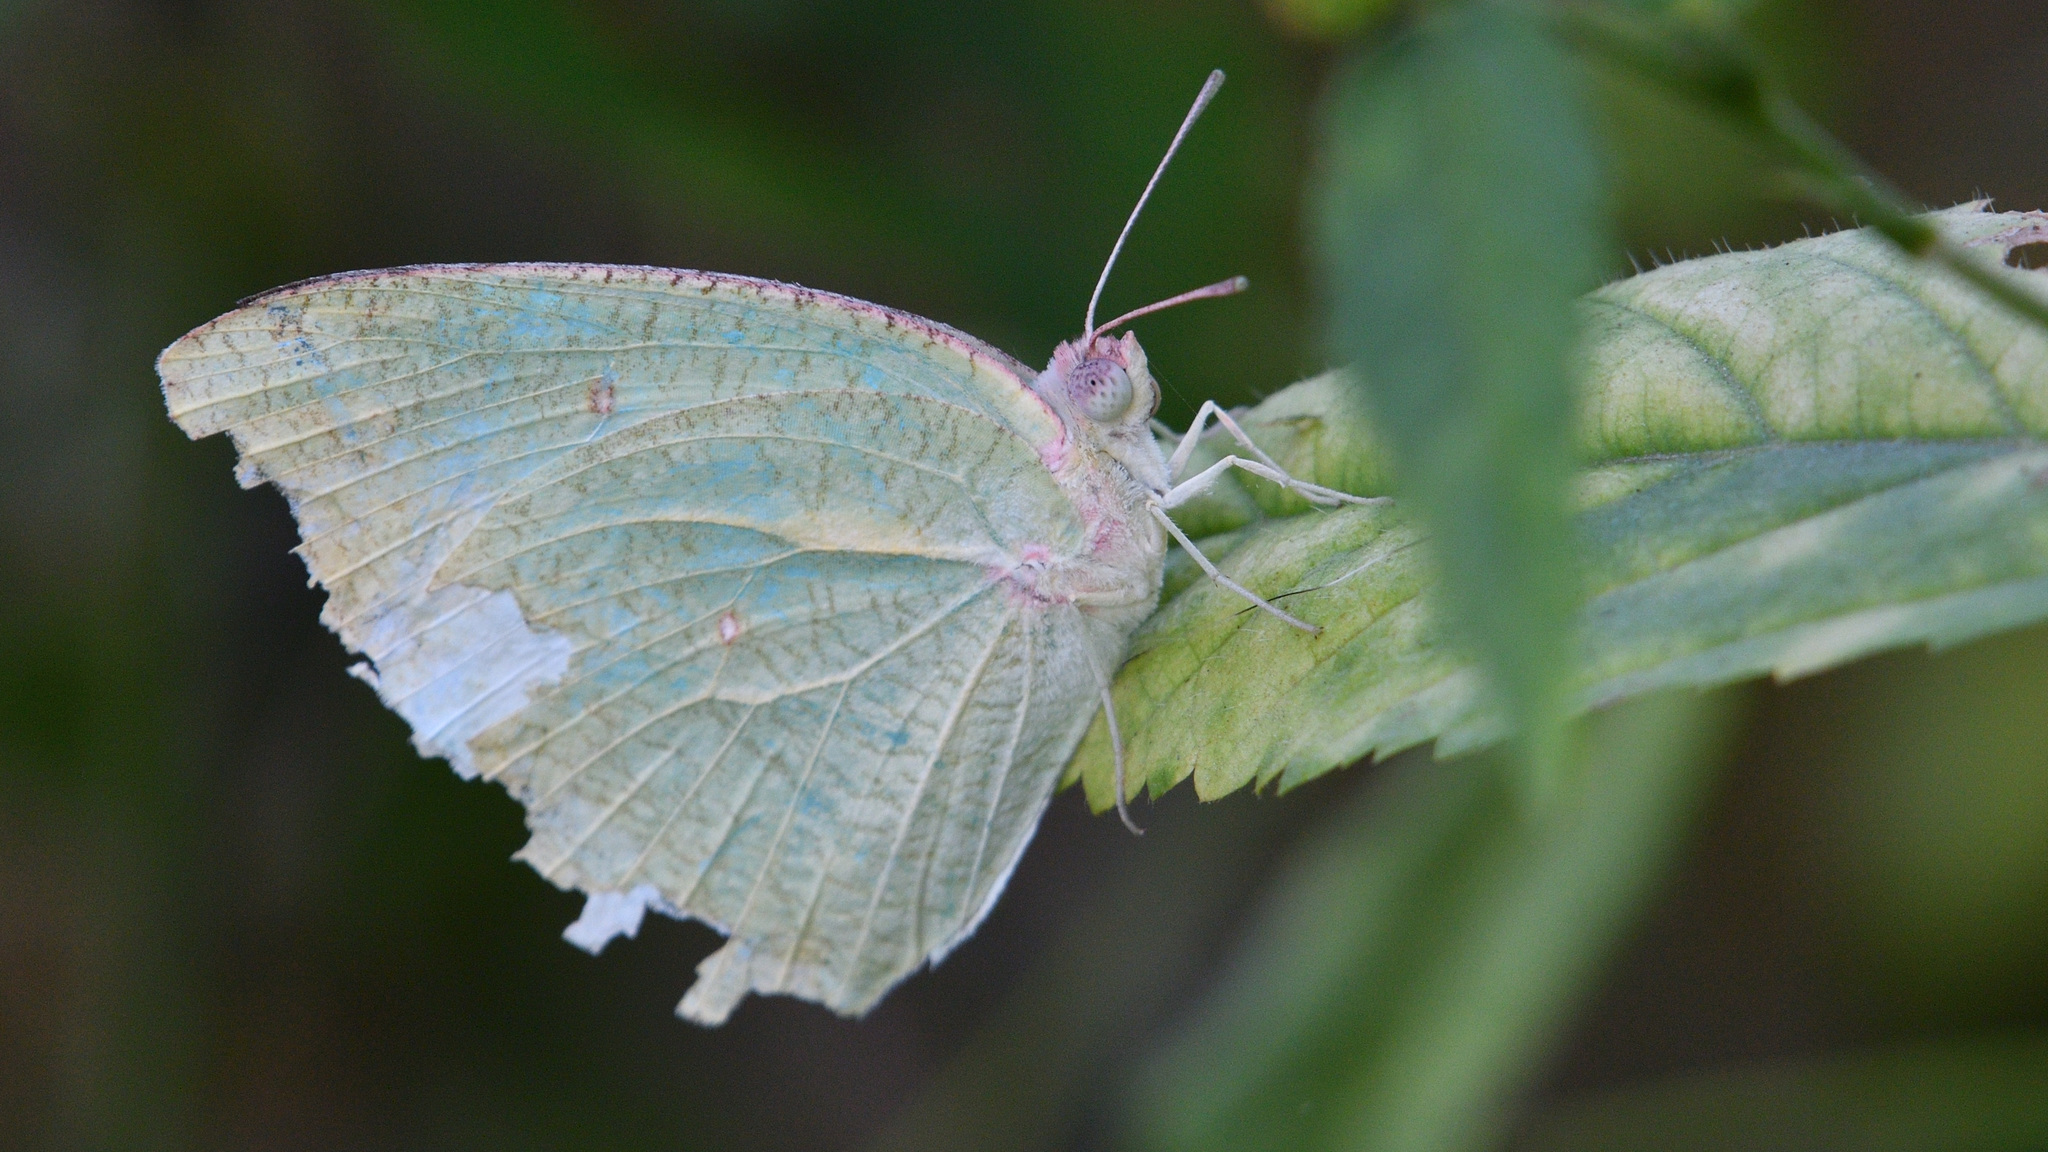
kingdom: Animalia
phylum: Arthropoda
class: Insecta
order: Lepidoptera
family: Pieridae
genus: Catopsilia
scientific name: Catopsilia pyranthe
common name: Mottled emigrant
